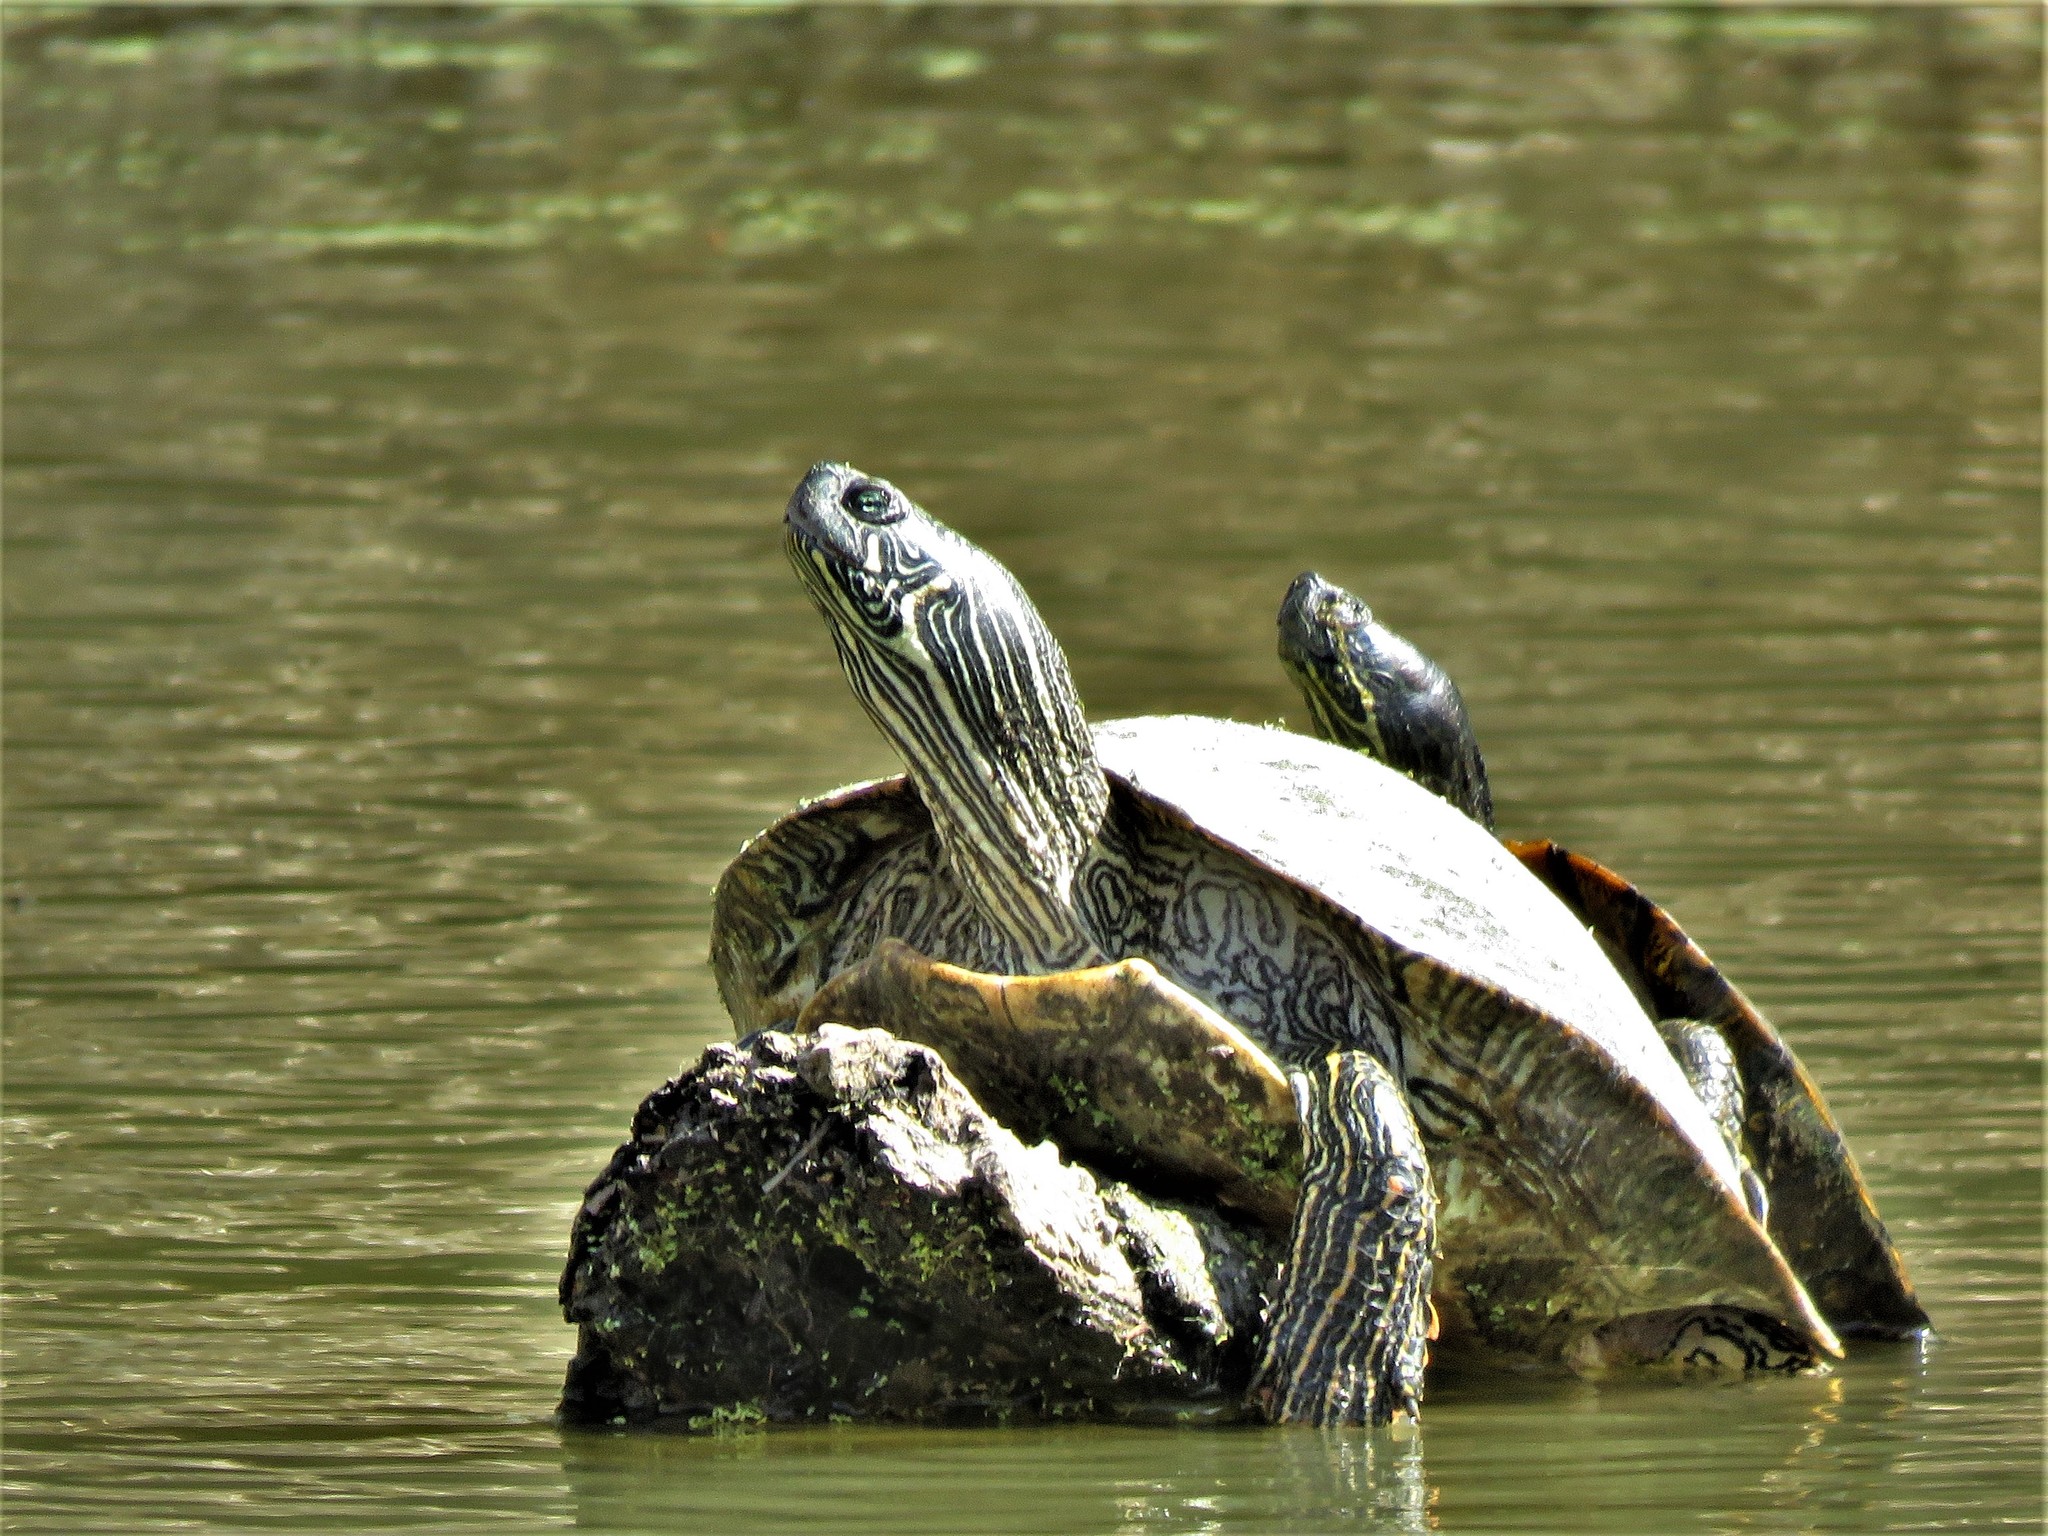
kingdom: Animalia
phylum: Chordata
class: Testudines
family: Emydidae
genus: Pseudemys
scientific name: Pseudemys texana
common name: Texas river cooter
